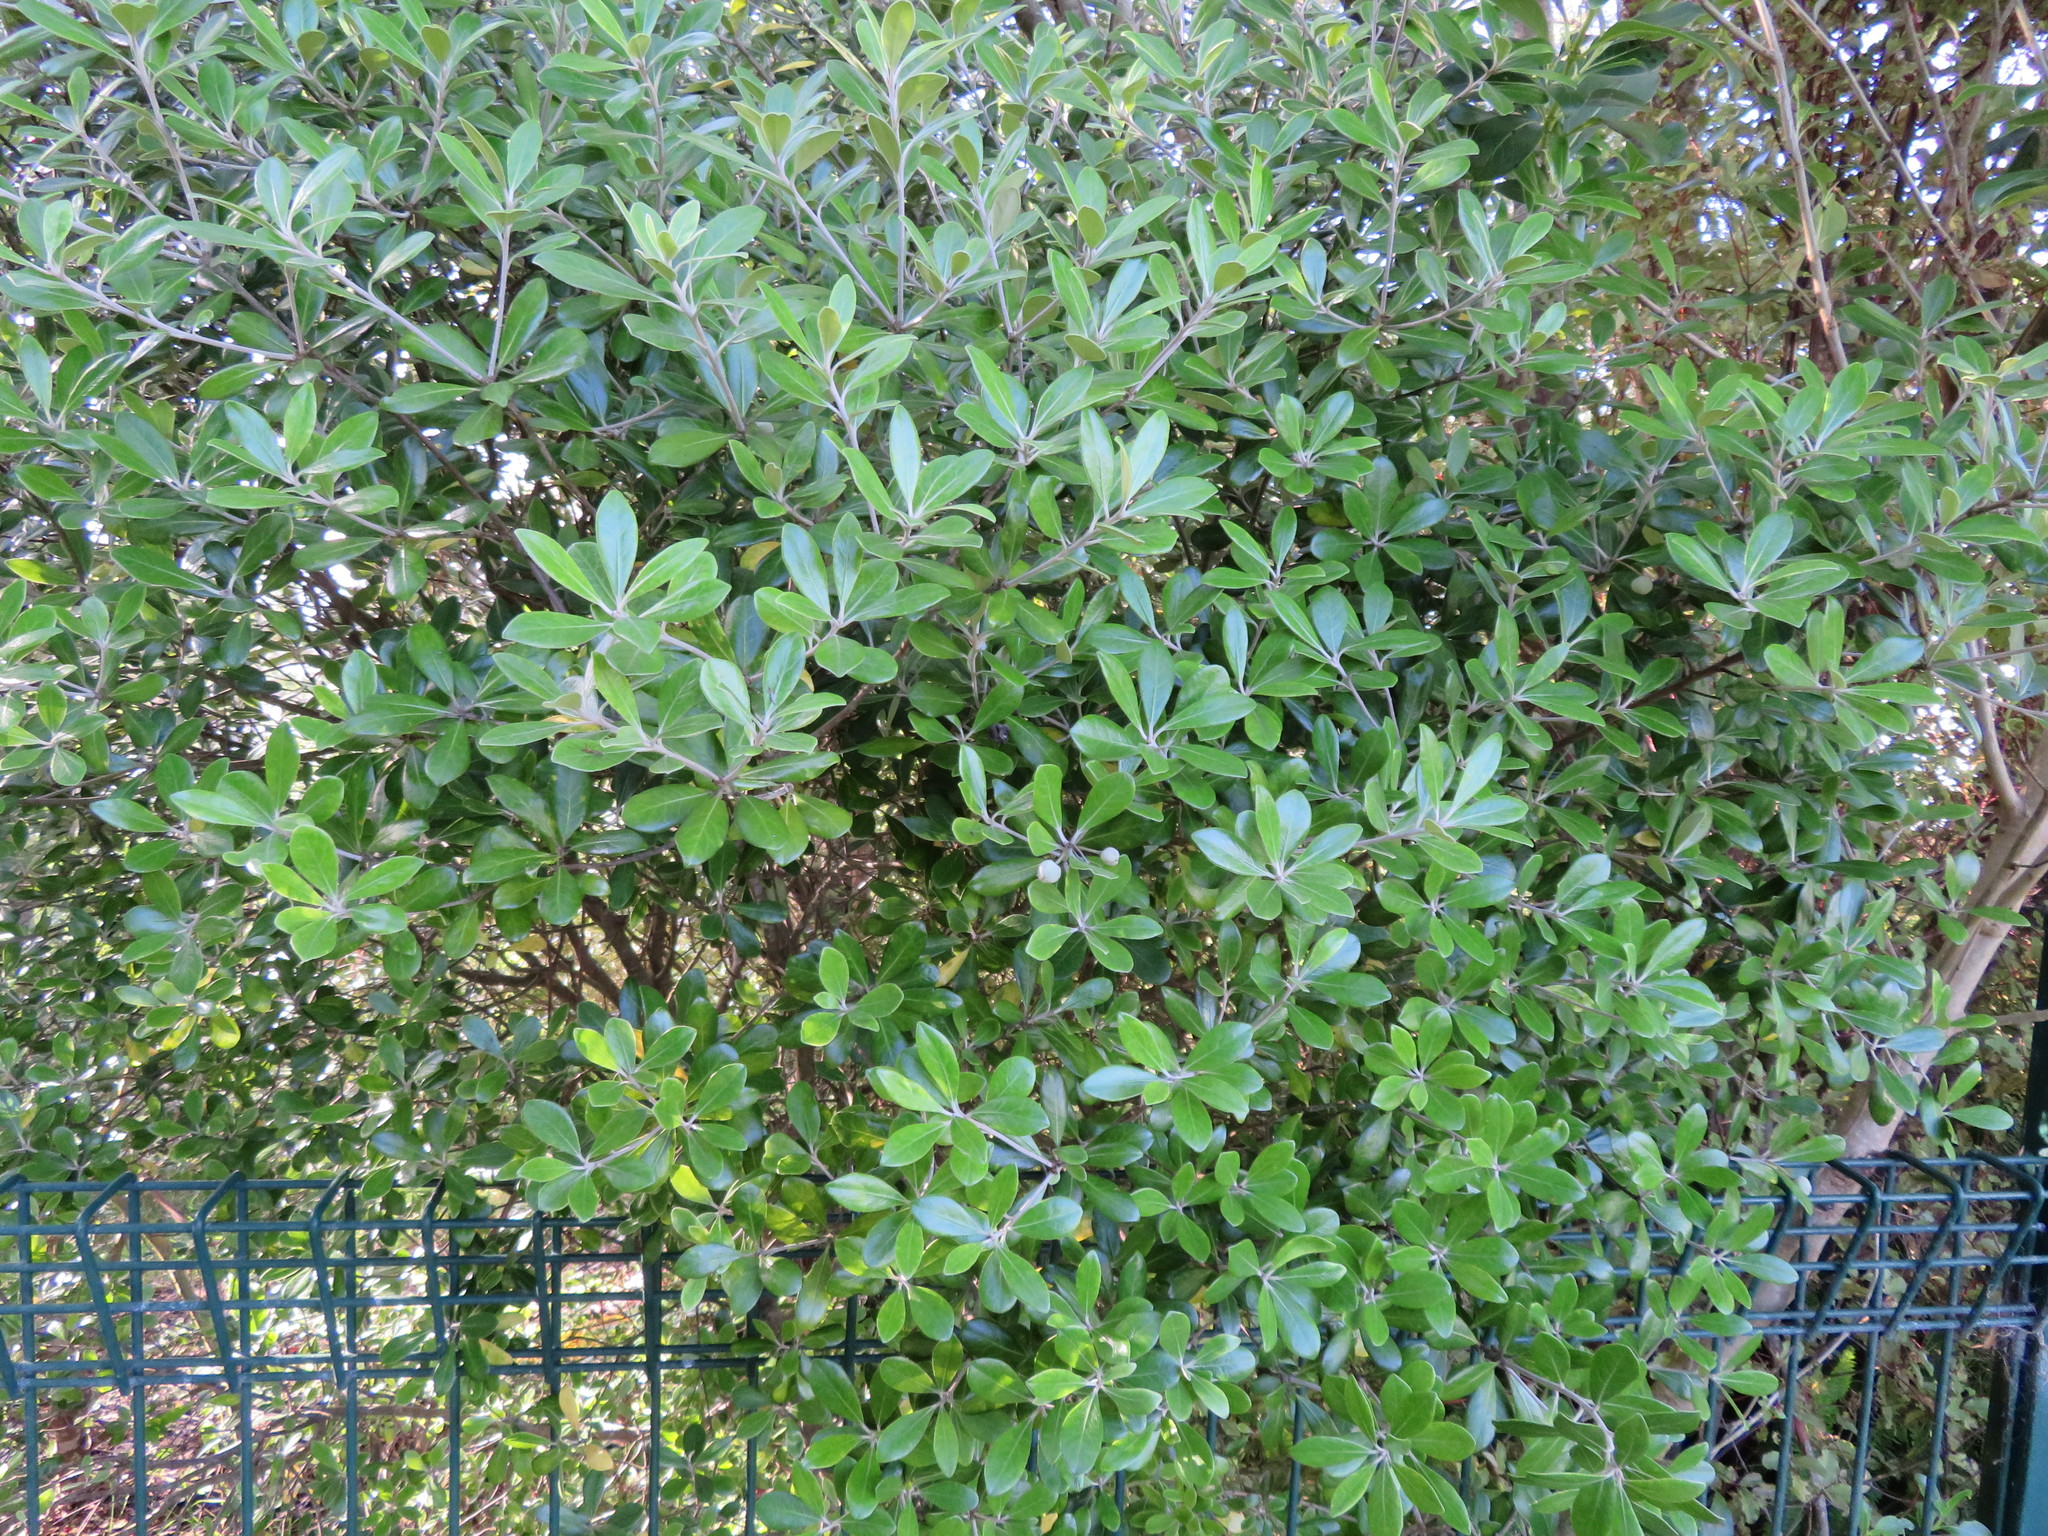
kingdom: Plantae
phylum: Tracheophyta
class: Magnoliopsida
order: Apiales
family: Pittosporaceae
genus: Pittosporum
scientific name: Pittosporum crassifolium
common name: Karo
